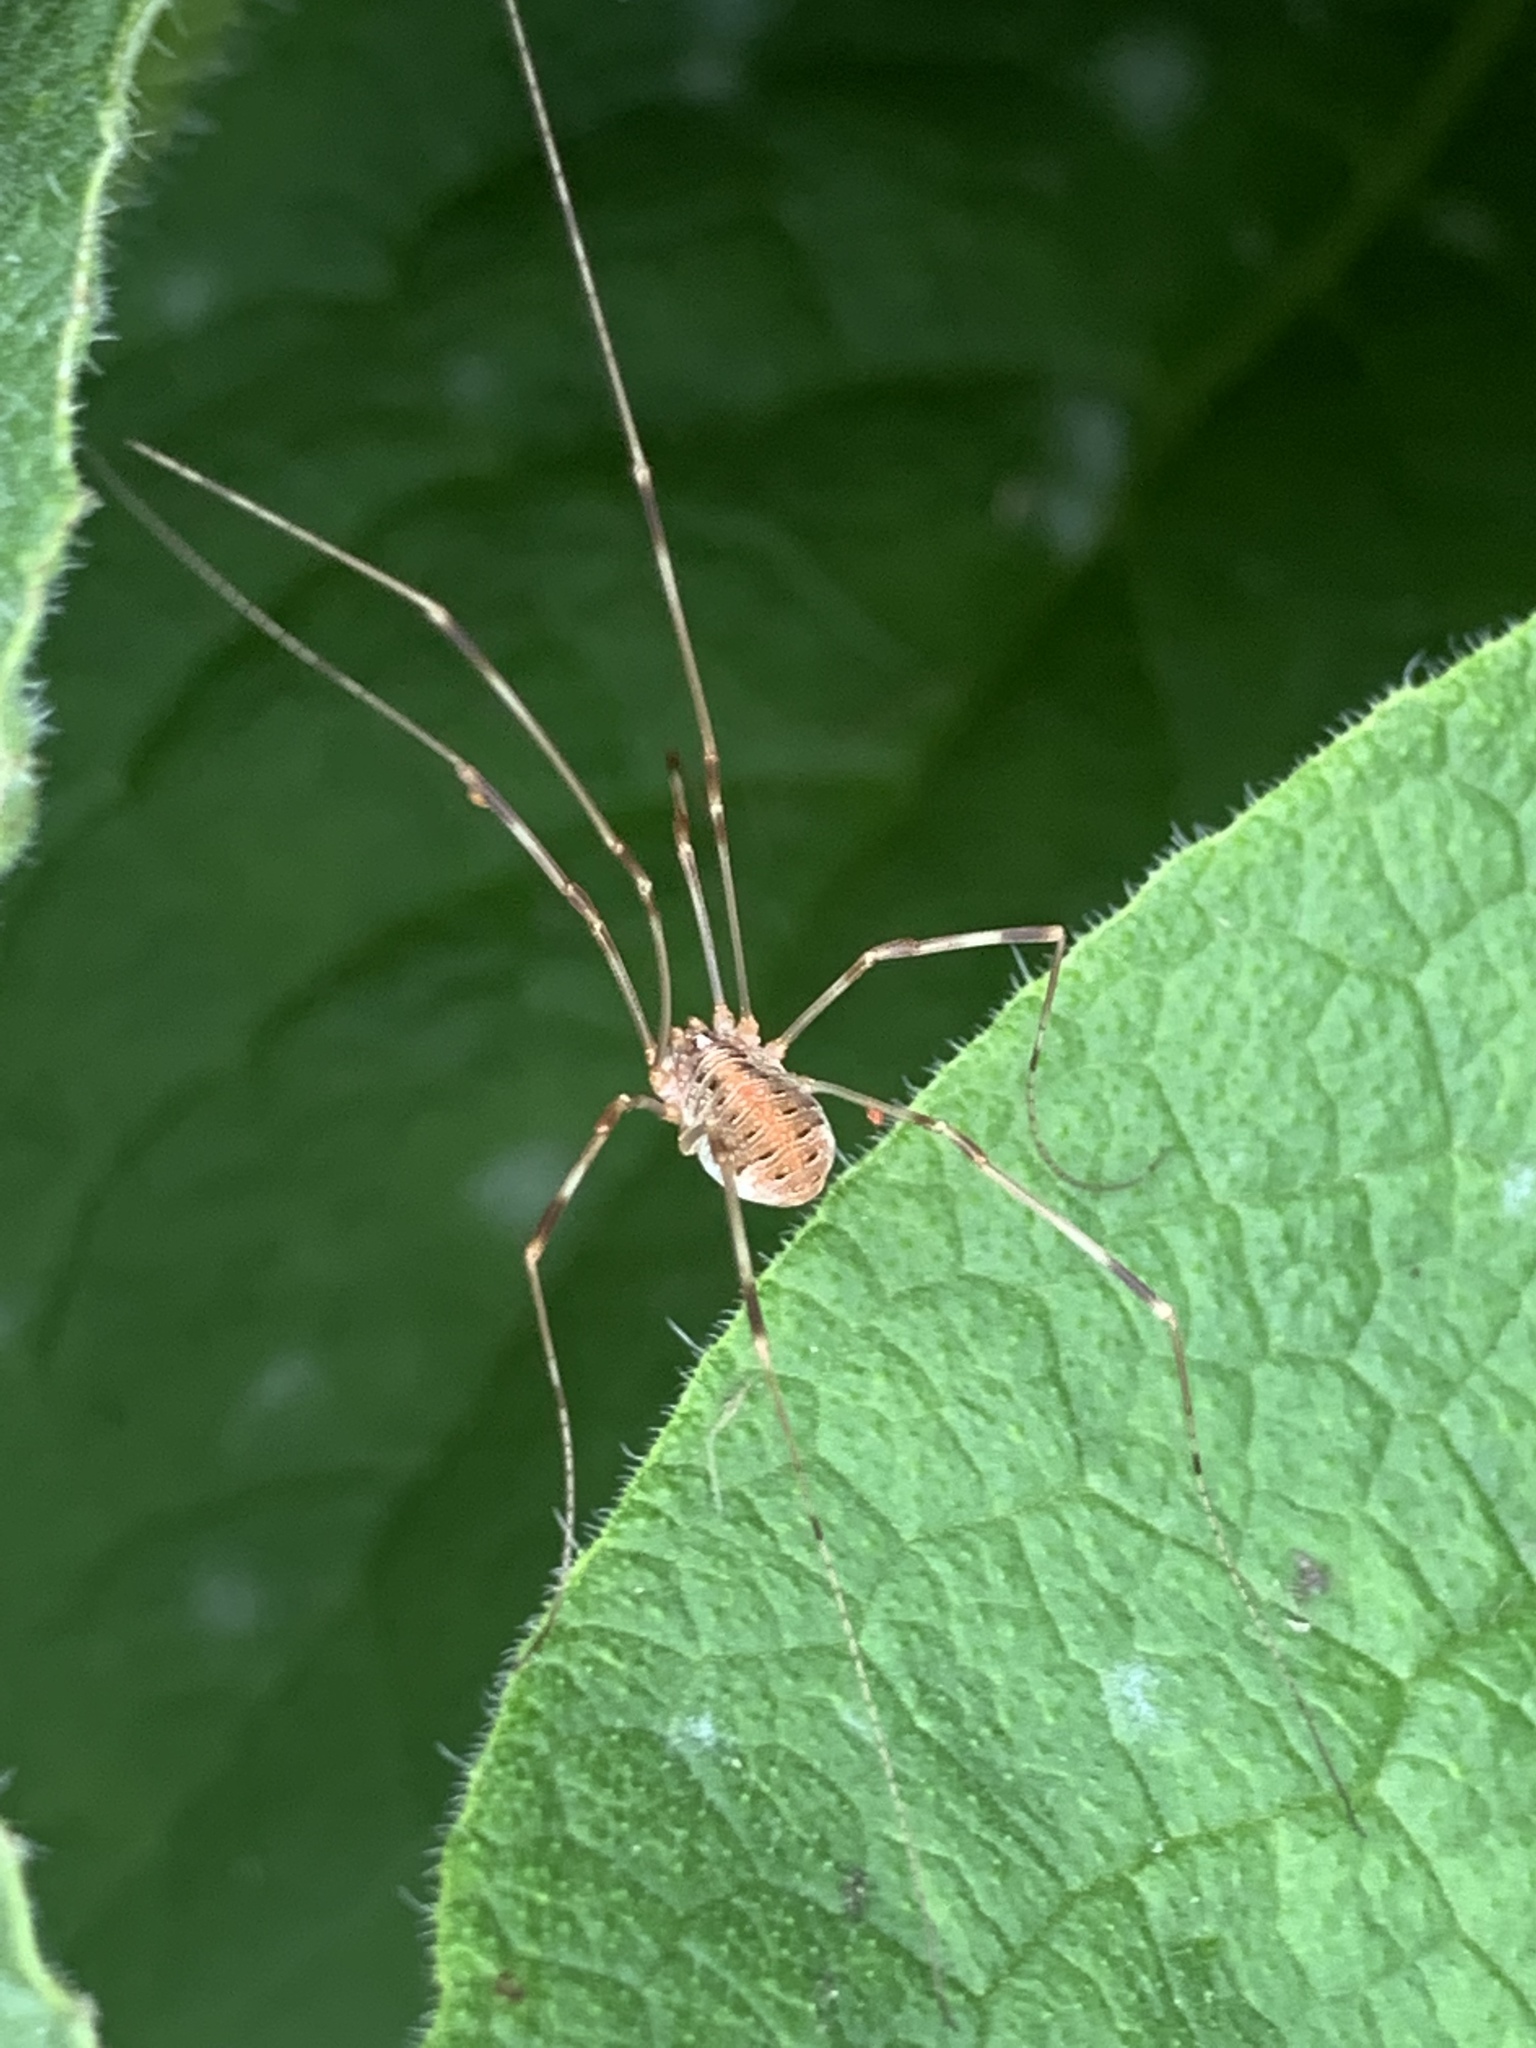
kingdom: Animalia
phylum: Arthropoda
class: Arachnida
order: Opiliones
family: Phalangiidae
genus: Opilio
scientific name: Opilio canestrinii
